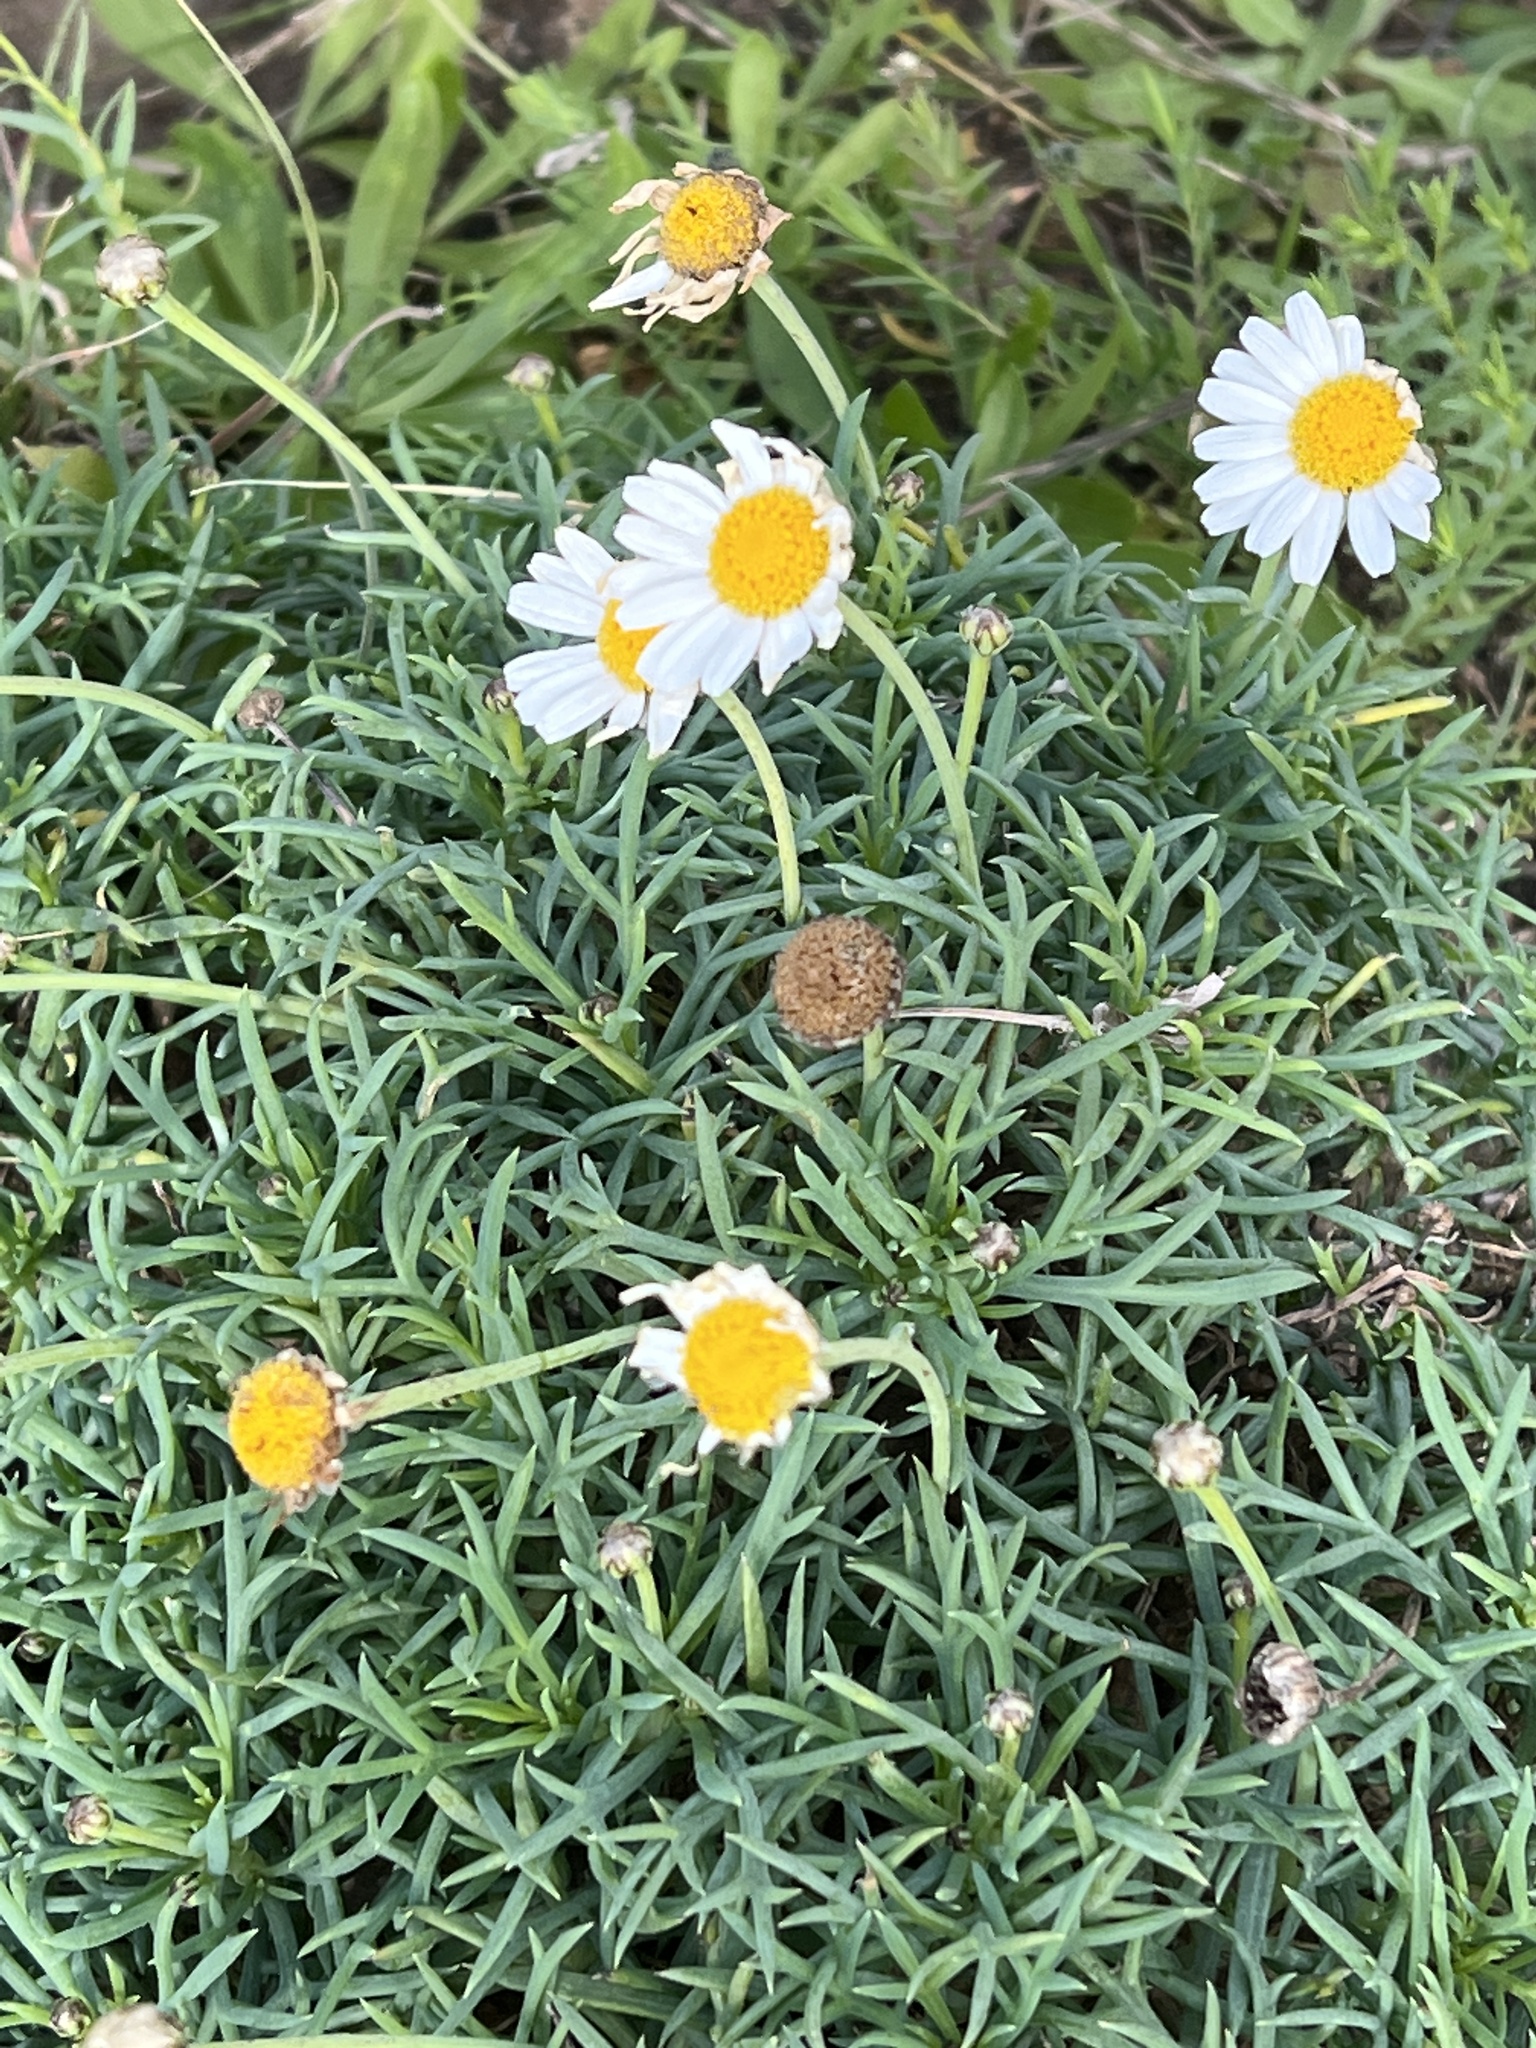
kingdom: Plantae
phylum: Tracheophyta
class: Magnoliopsida
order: Asterales
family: Asteraceae
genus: Argyranthemum
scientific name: Argyranthemum frutescens
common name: Paris daisy
